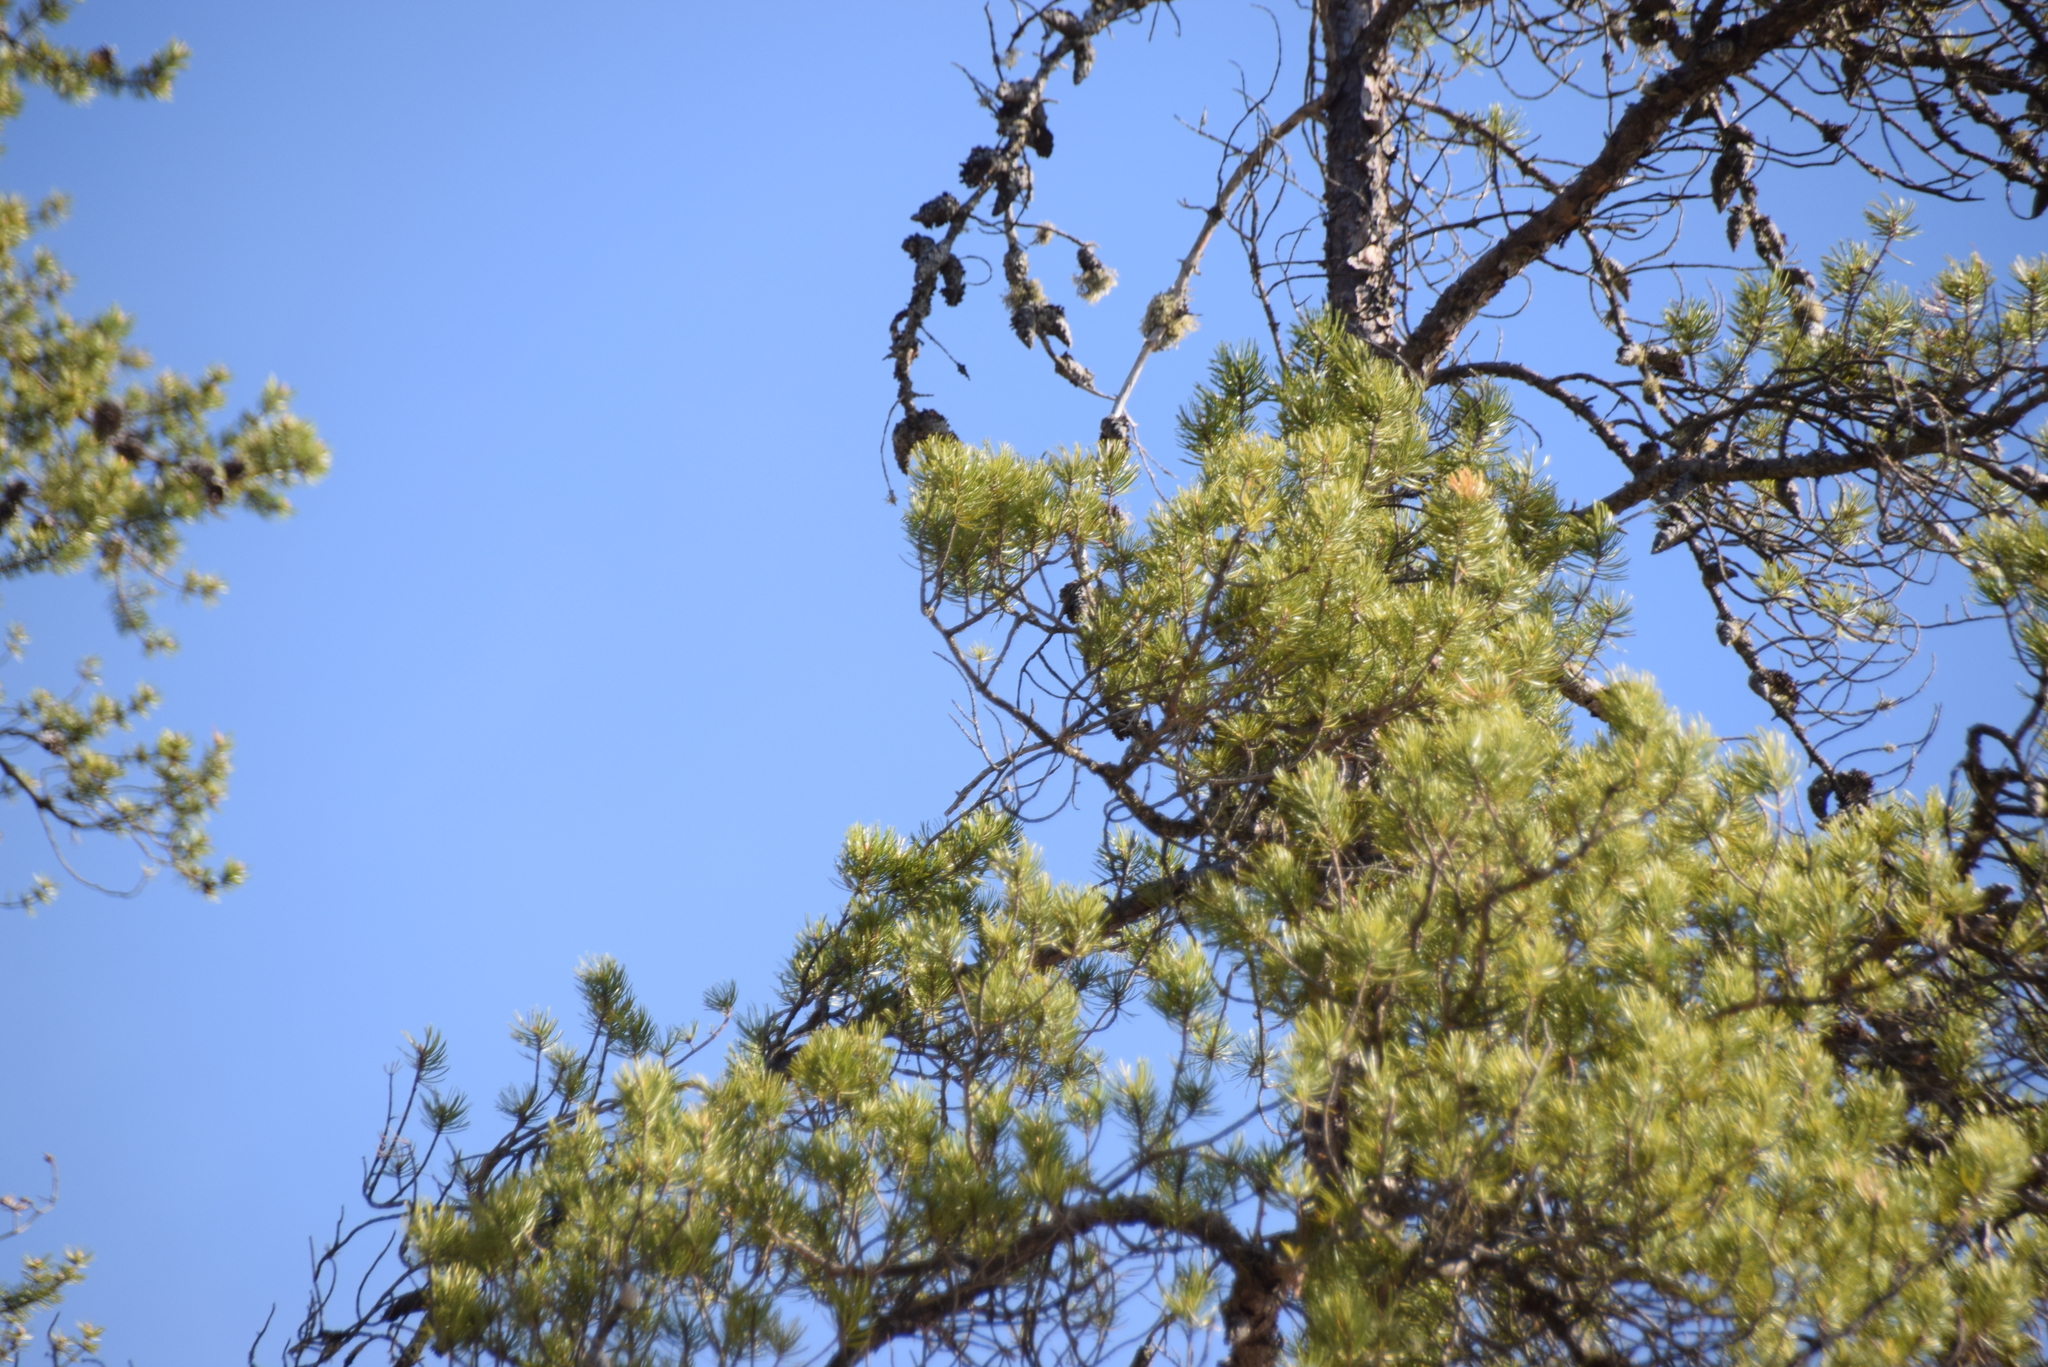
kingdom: Plantae
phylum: Tracheophyta
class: Pinopsida
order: Pinales
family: Pinaceae
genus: Pinus
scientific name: Pinus banksiana
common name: Jack pine
